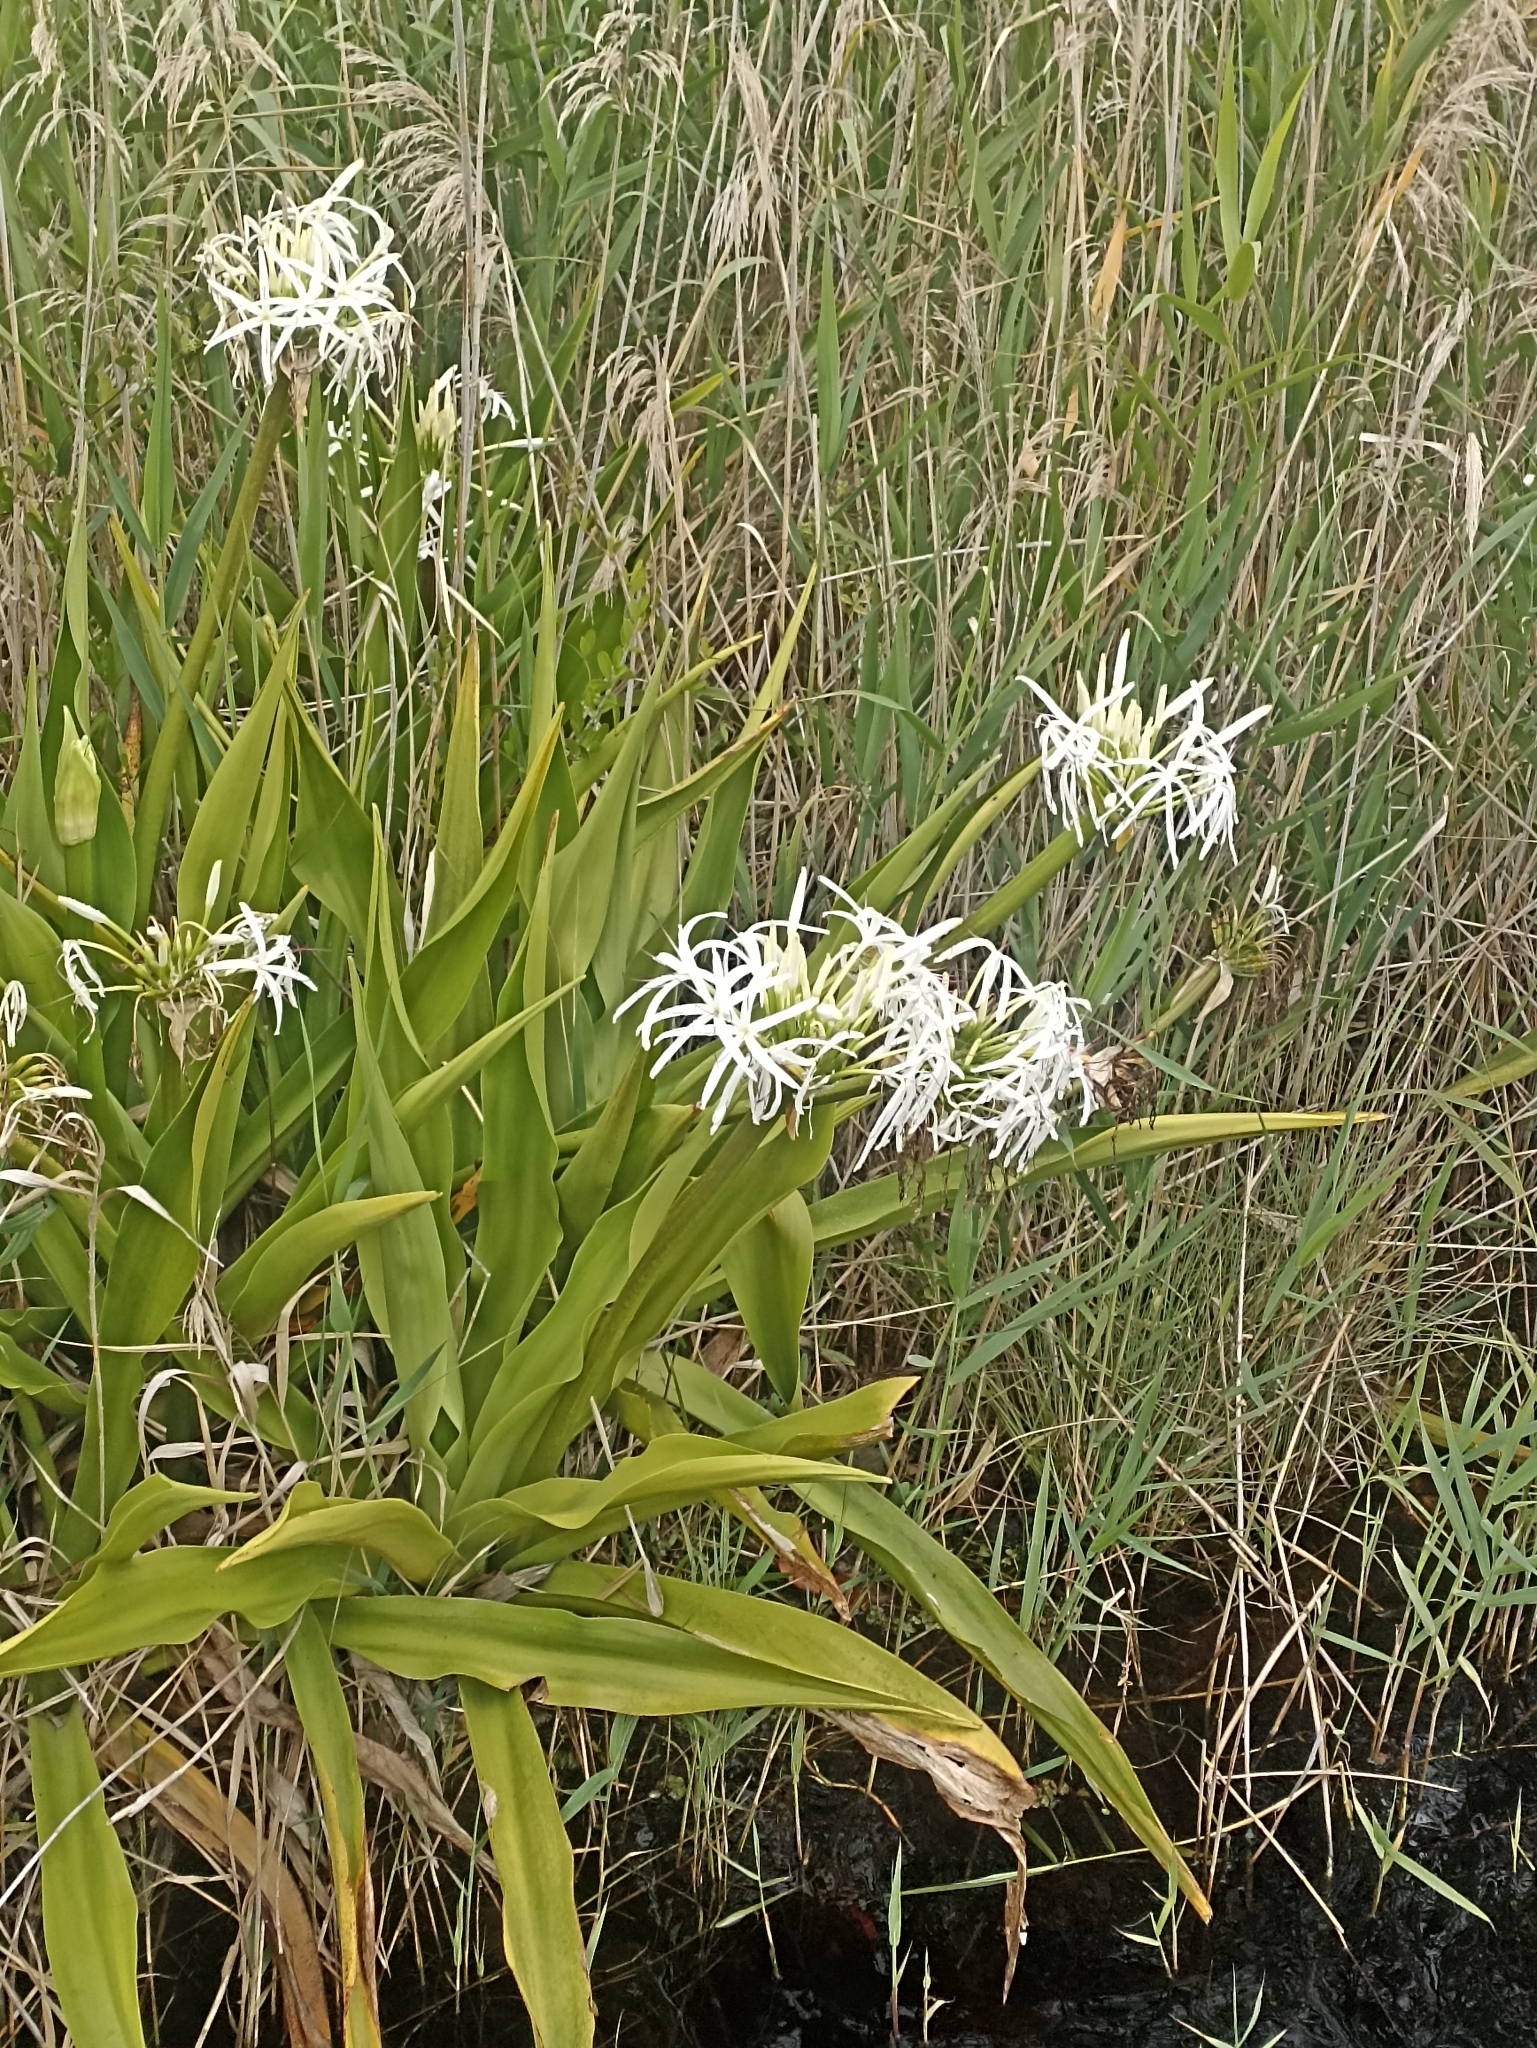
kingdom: Plantae
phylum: Tracheophyta
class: Liliopsida
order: Asparagales
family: Amaryllidaceae
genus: Crinum
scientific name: Crinum pedunculatum
